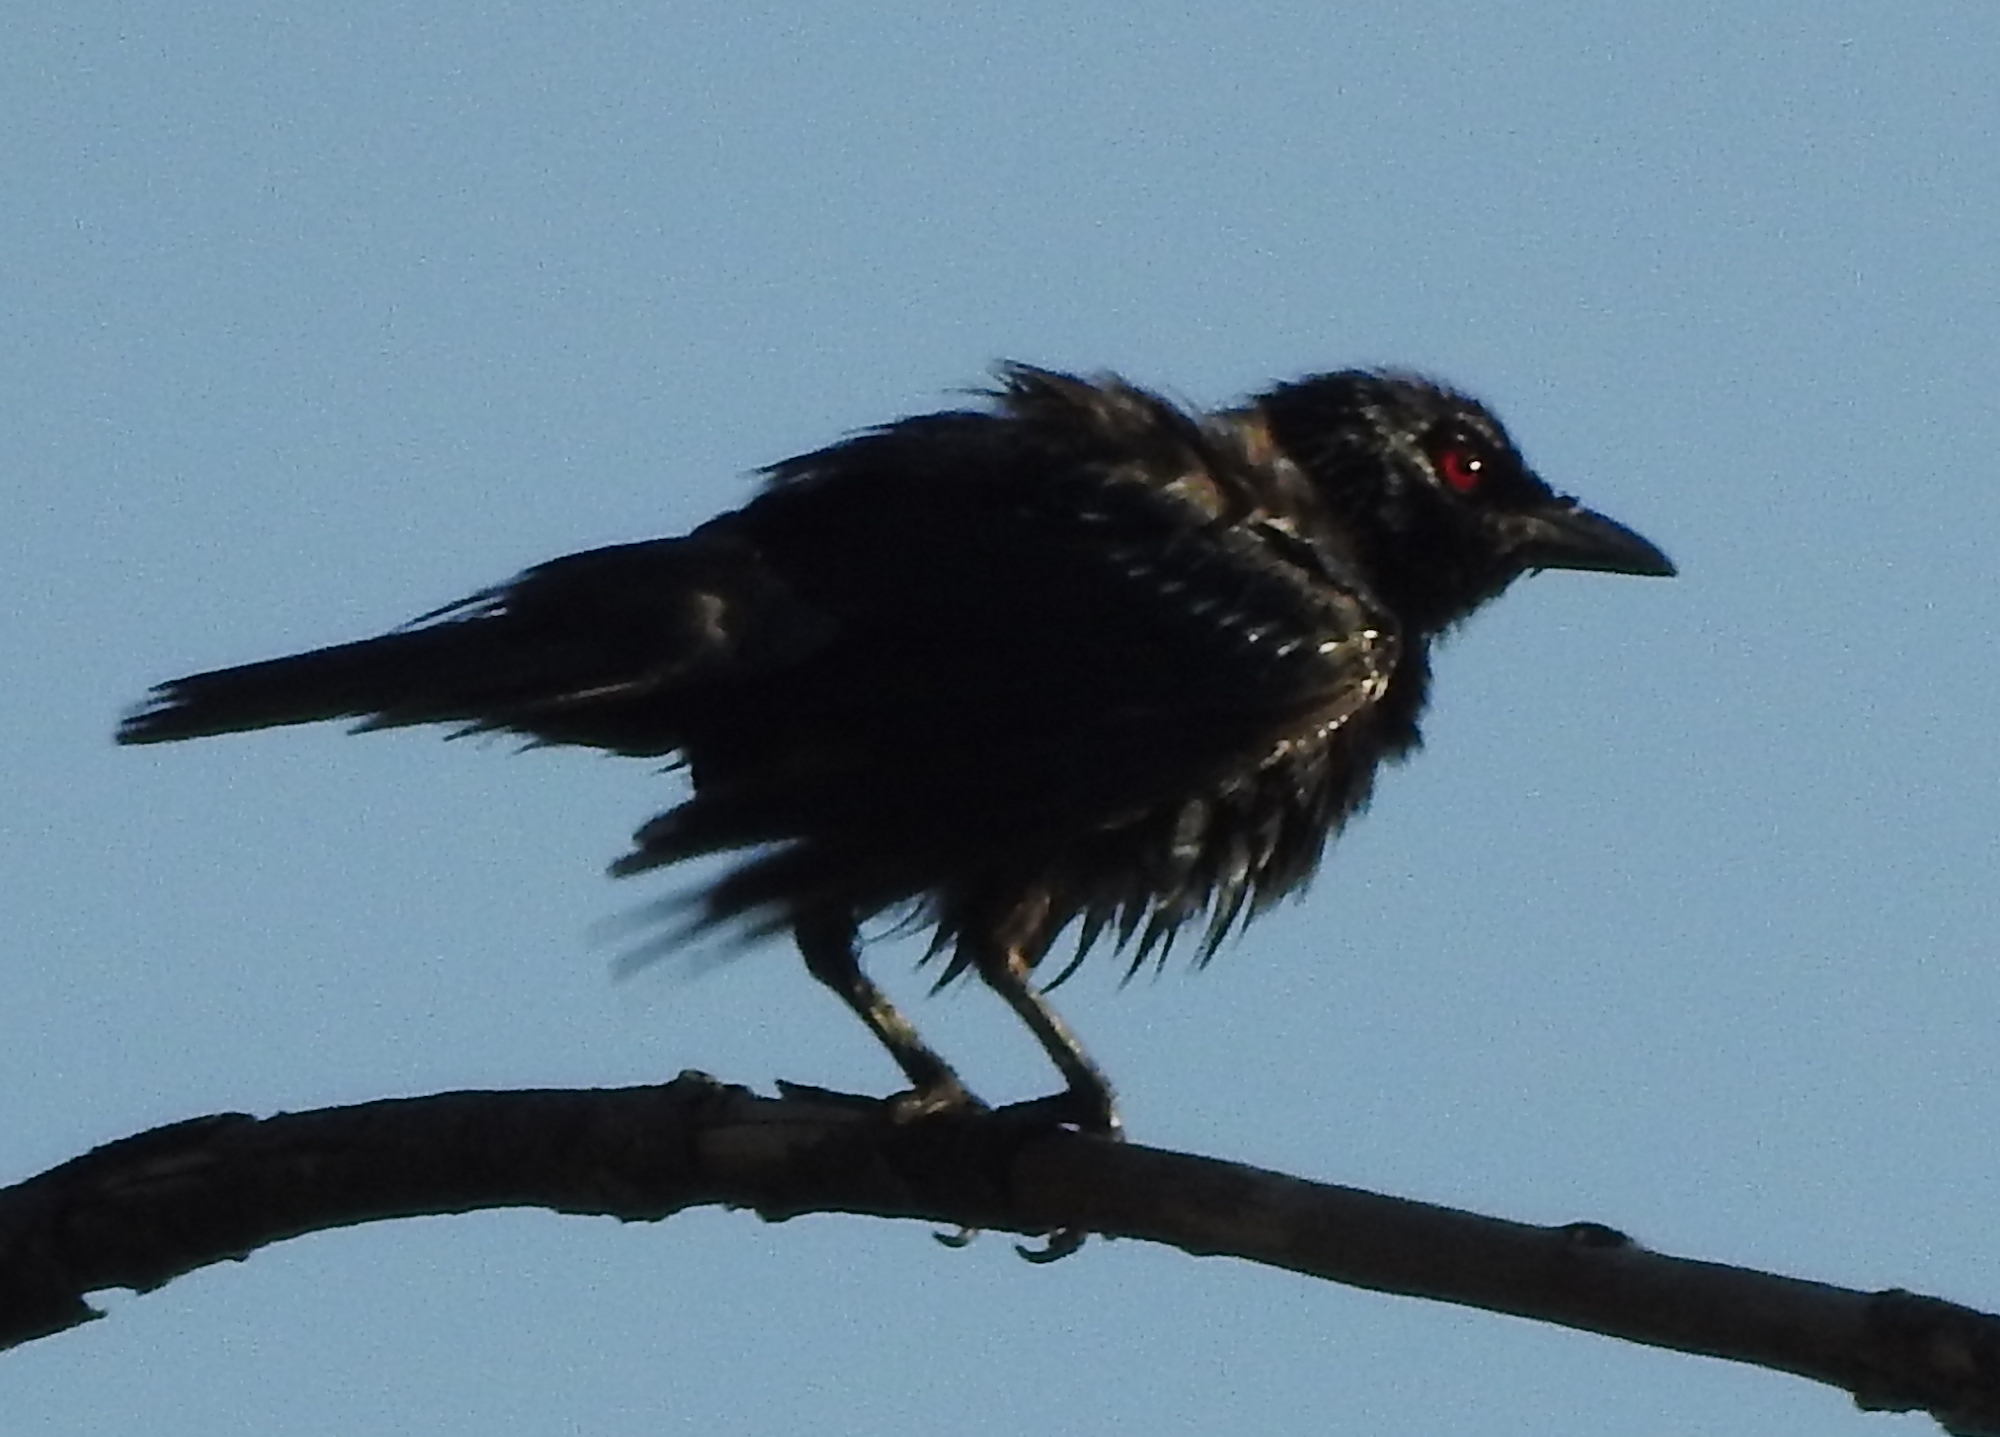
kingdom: Animalia
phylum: Chordata
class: Aves
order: Passeriformes
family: Sturnidae
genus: Aplonis
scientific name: Aplonis panayensis
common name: Asian glossy starling
